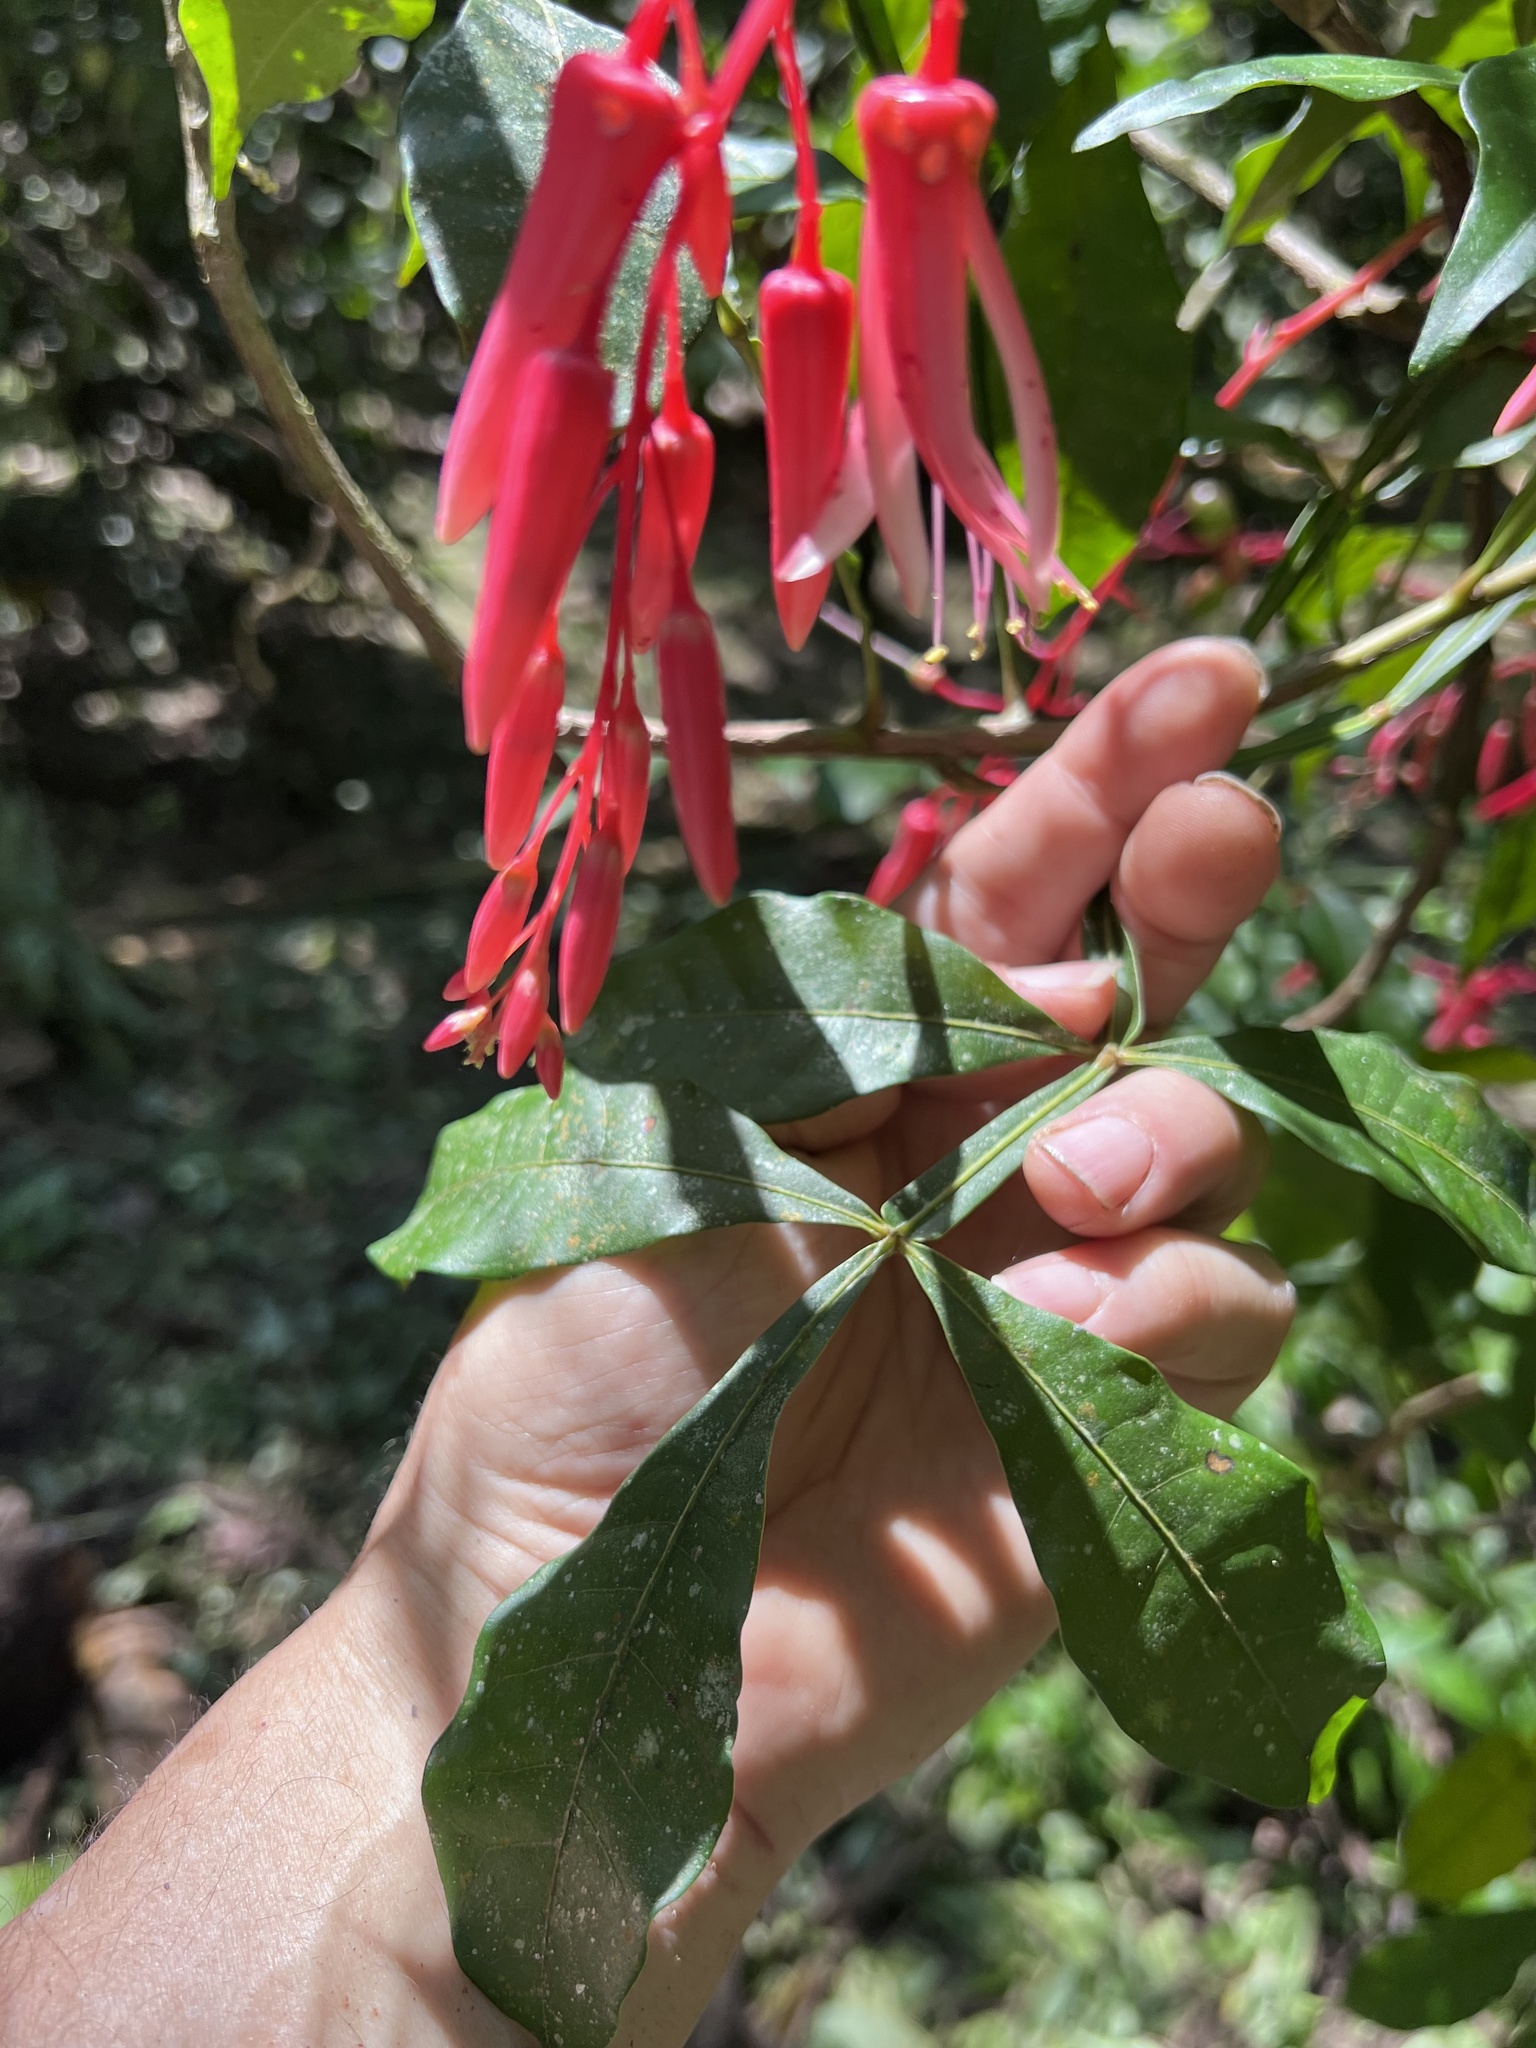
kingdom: Plantae
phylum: Tracheophyta
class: Magnoliopsida
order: Sapindales
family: Simaroubaceae
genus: Quassia
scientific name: Quassia amara
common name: Quassia
